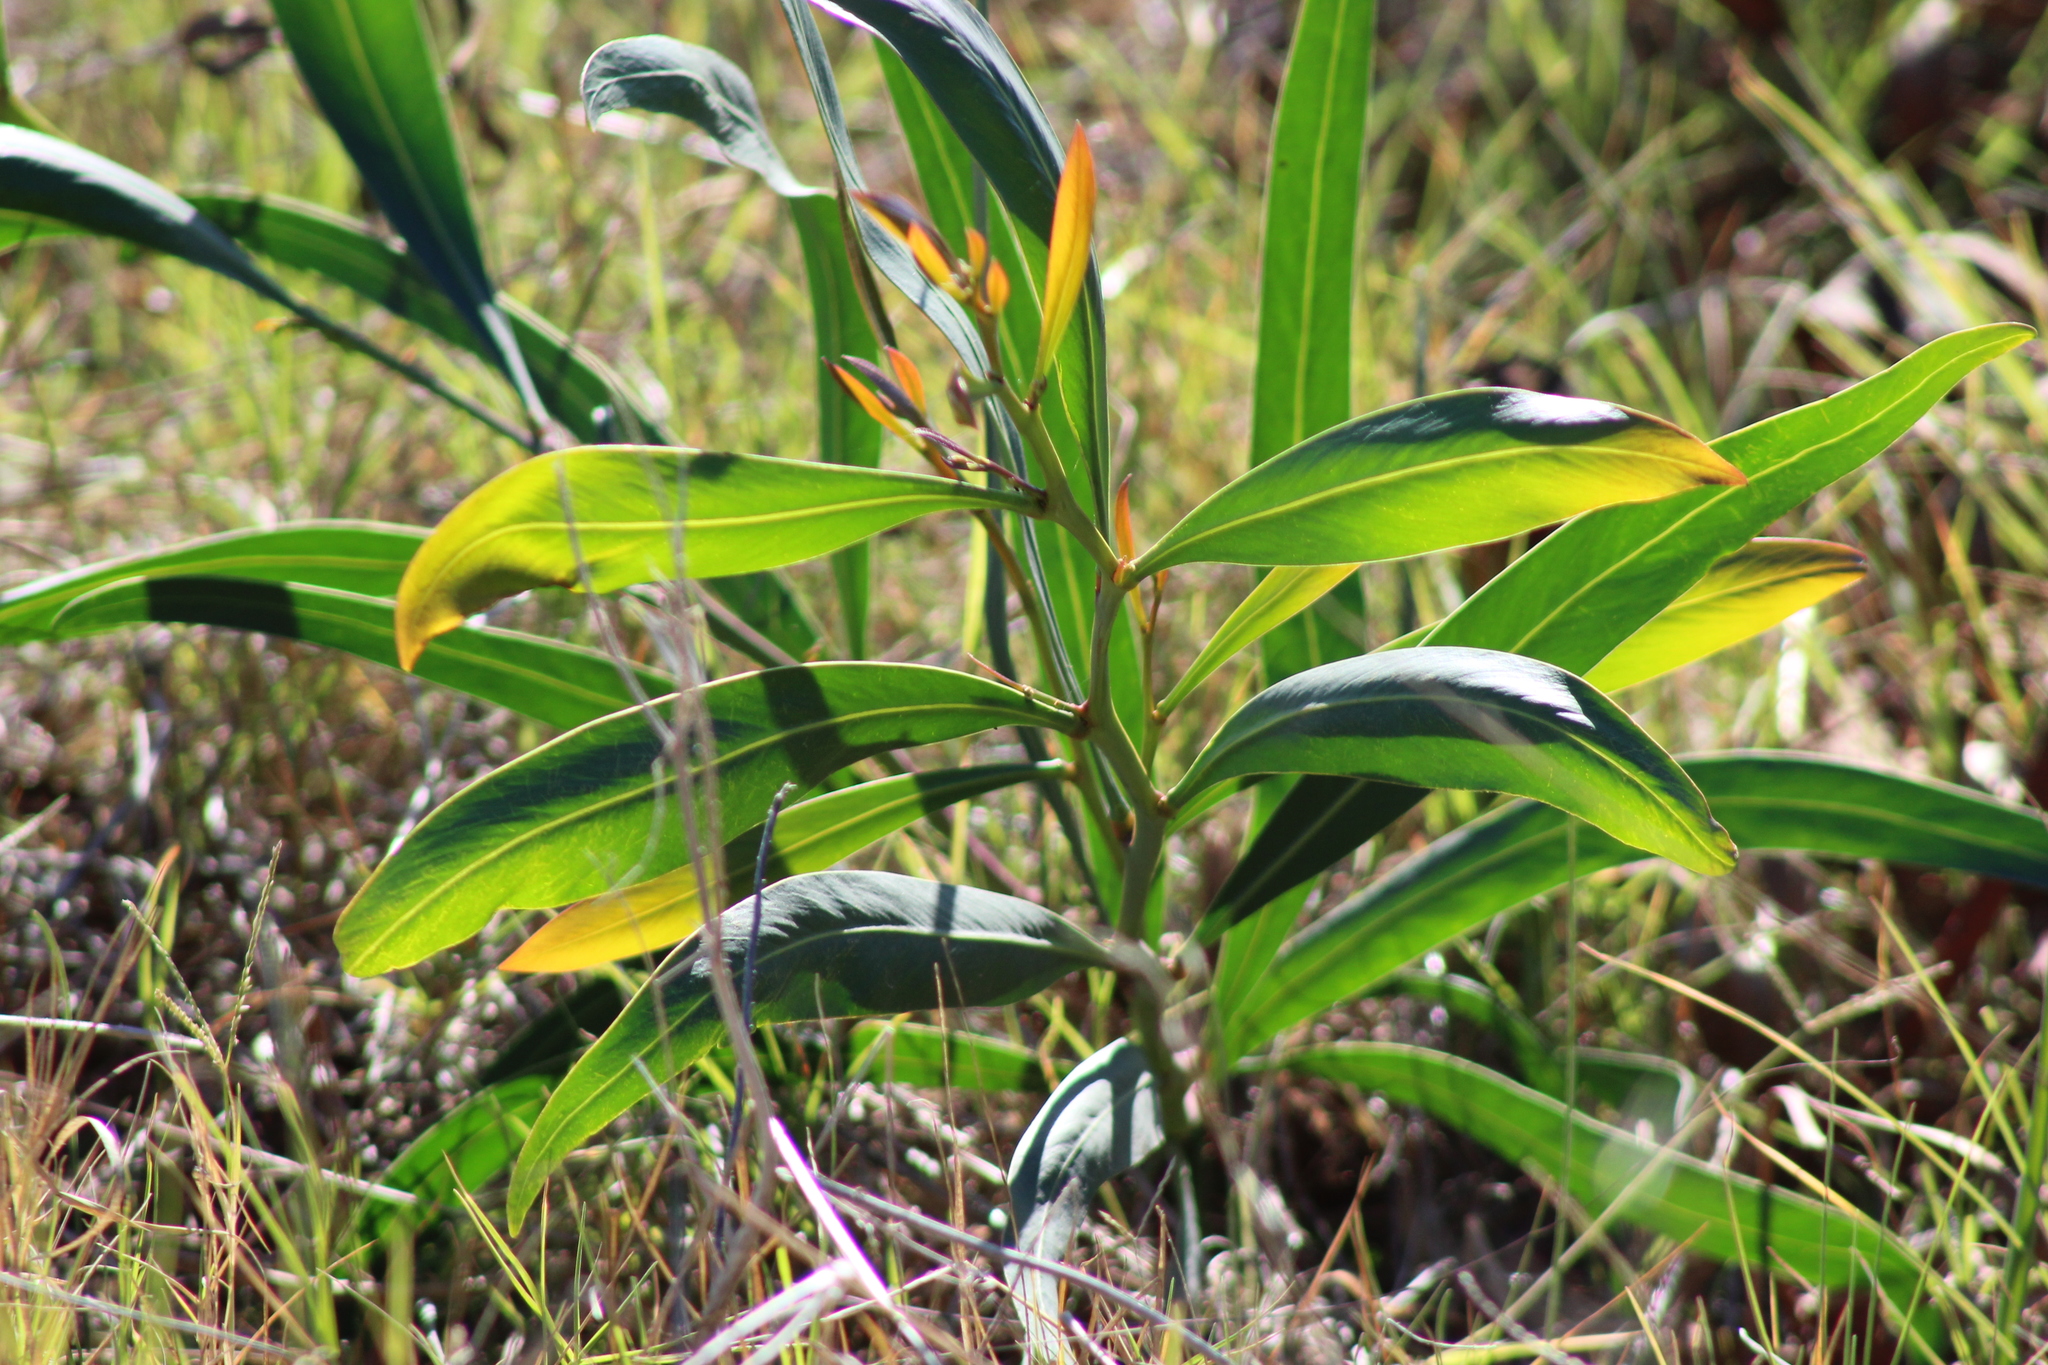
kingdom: Plantae
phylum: Tracheophyta
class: Magnoliopsida
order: Fabales
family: Fabaceae
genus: Acacia
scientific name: Acacia saligna
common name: Orange wattle
